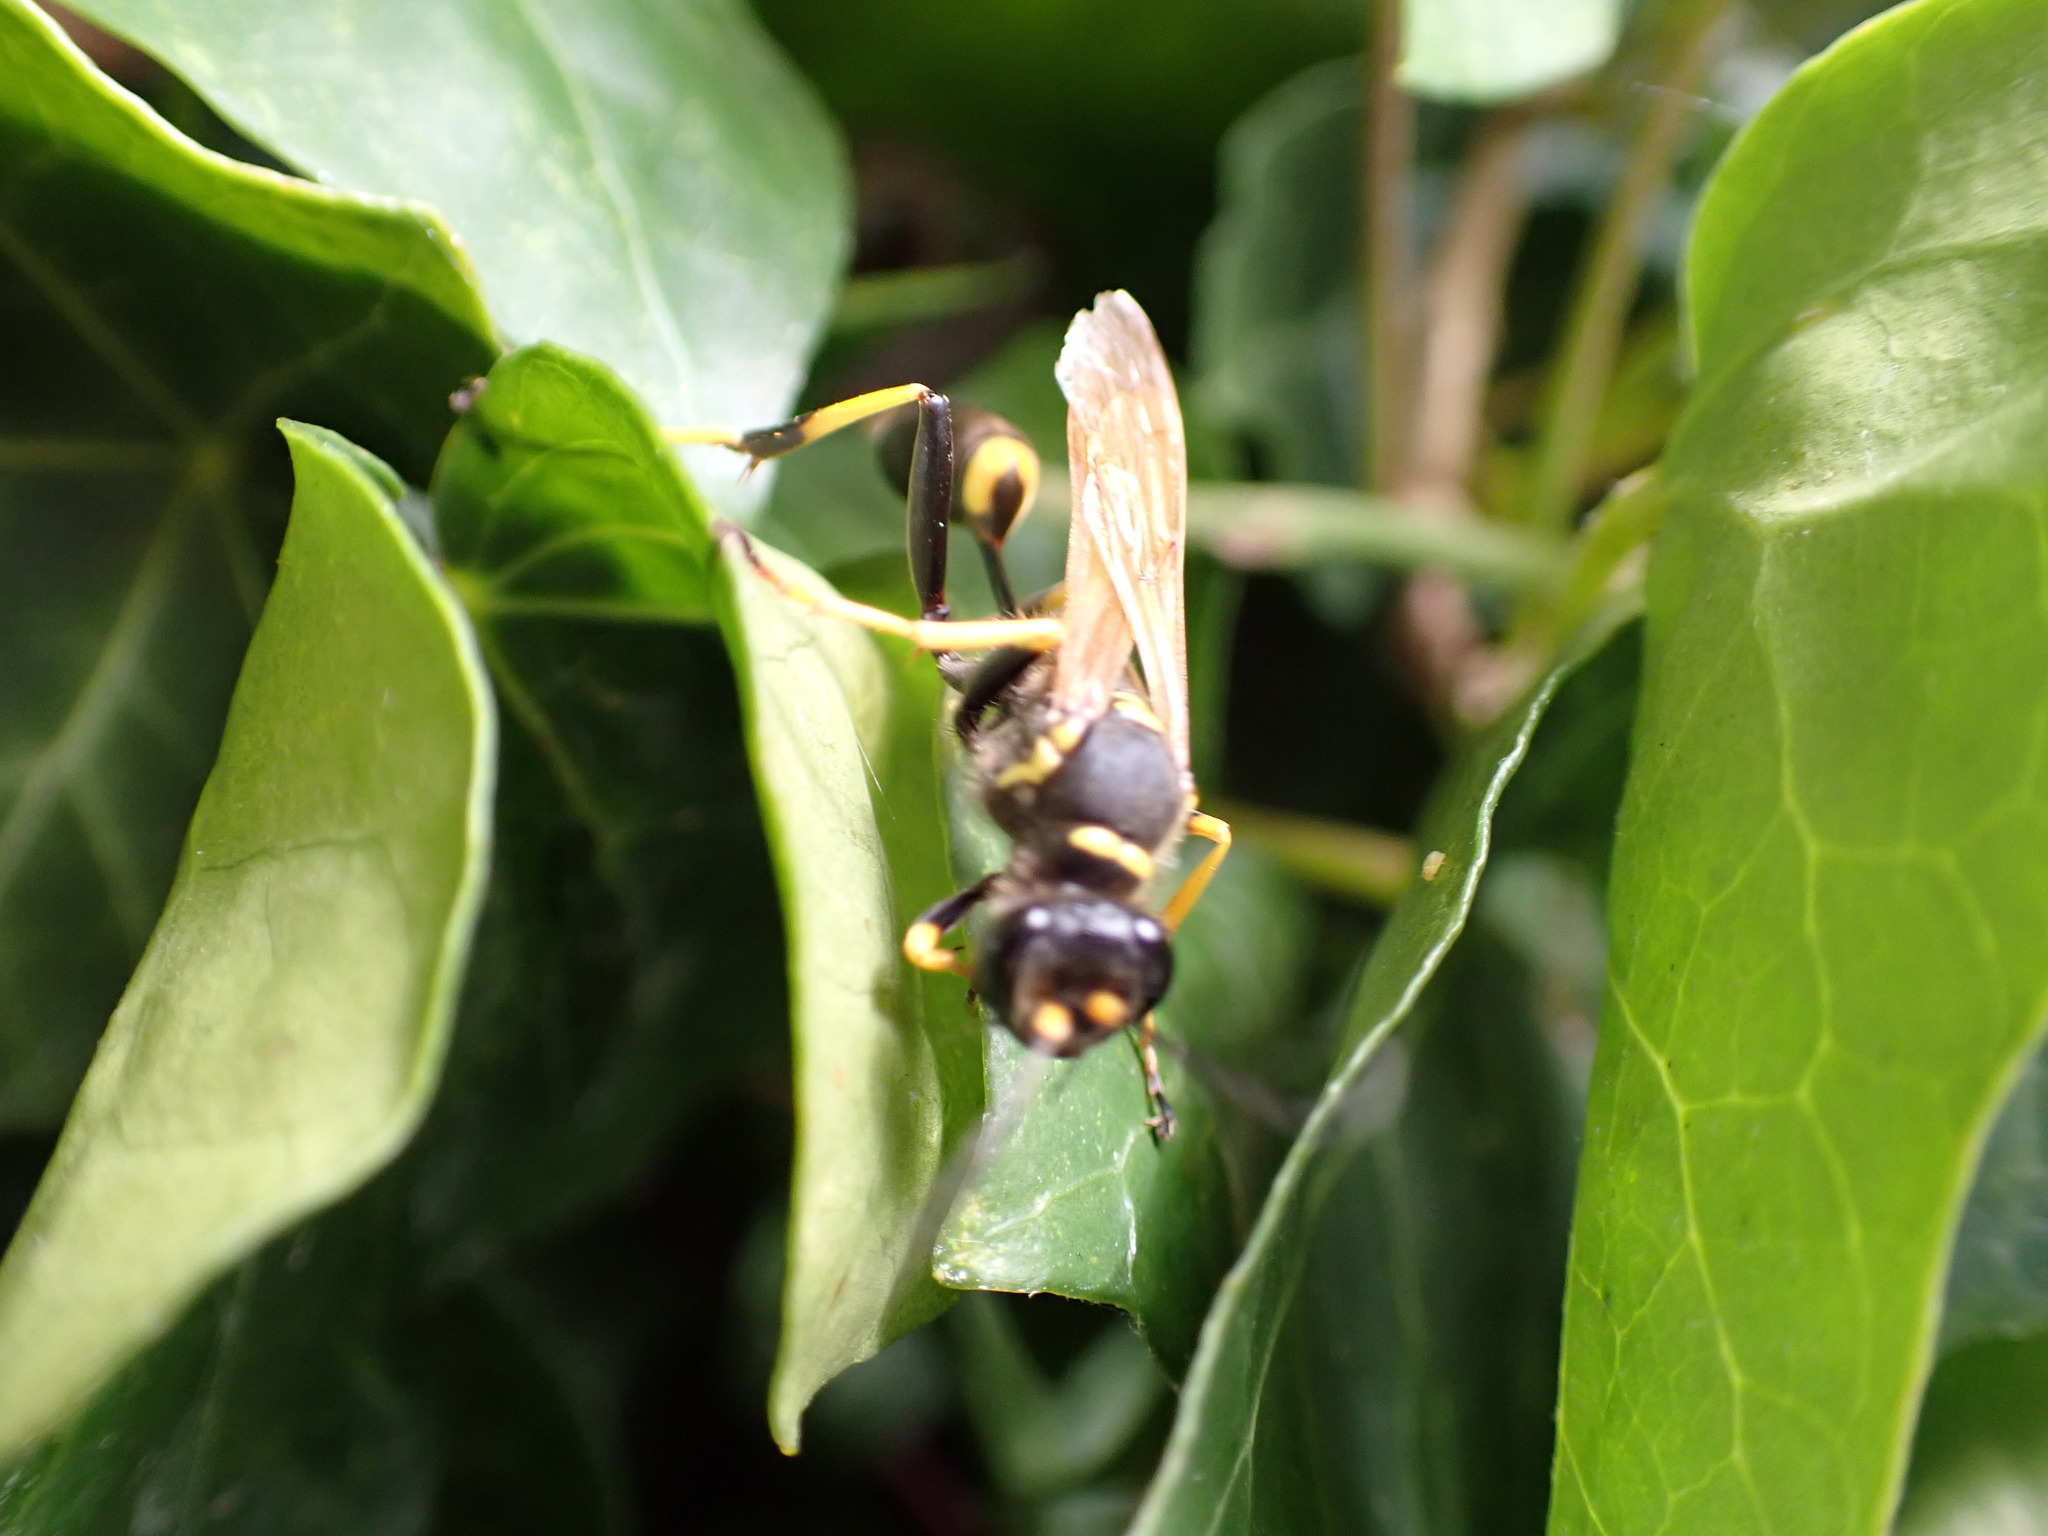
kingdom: Animalia
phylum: Arthropoda
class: Insecta
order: Hymenoptera
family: Sphecidae
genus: Sceliphron
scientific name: Sceliphron caementarium
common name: Mud dauber
